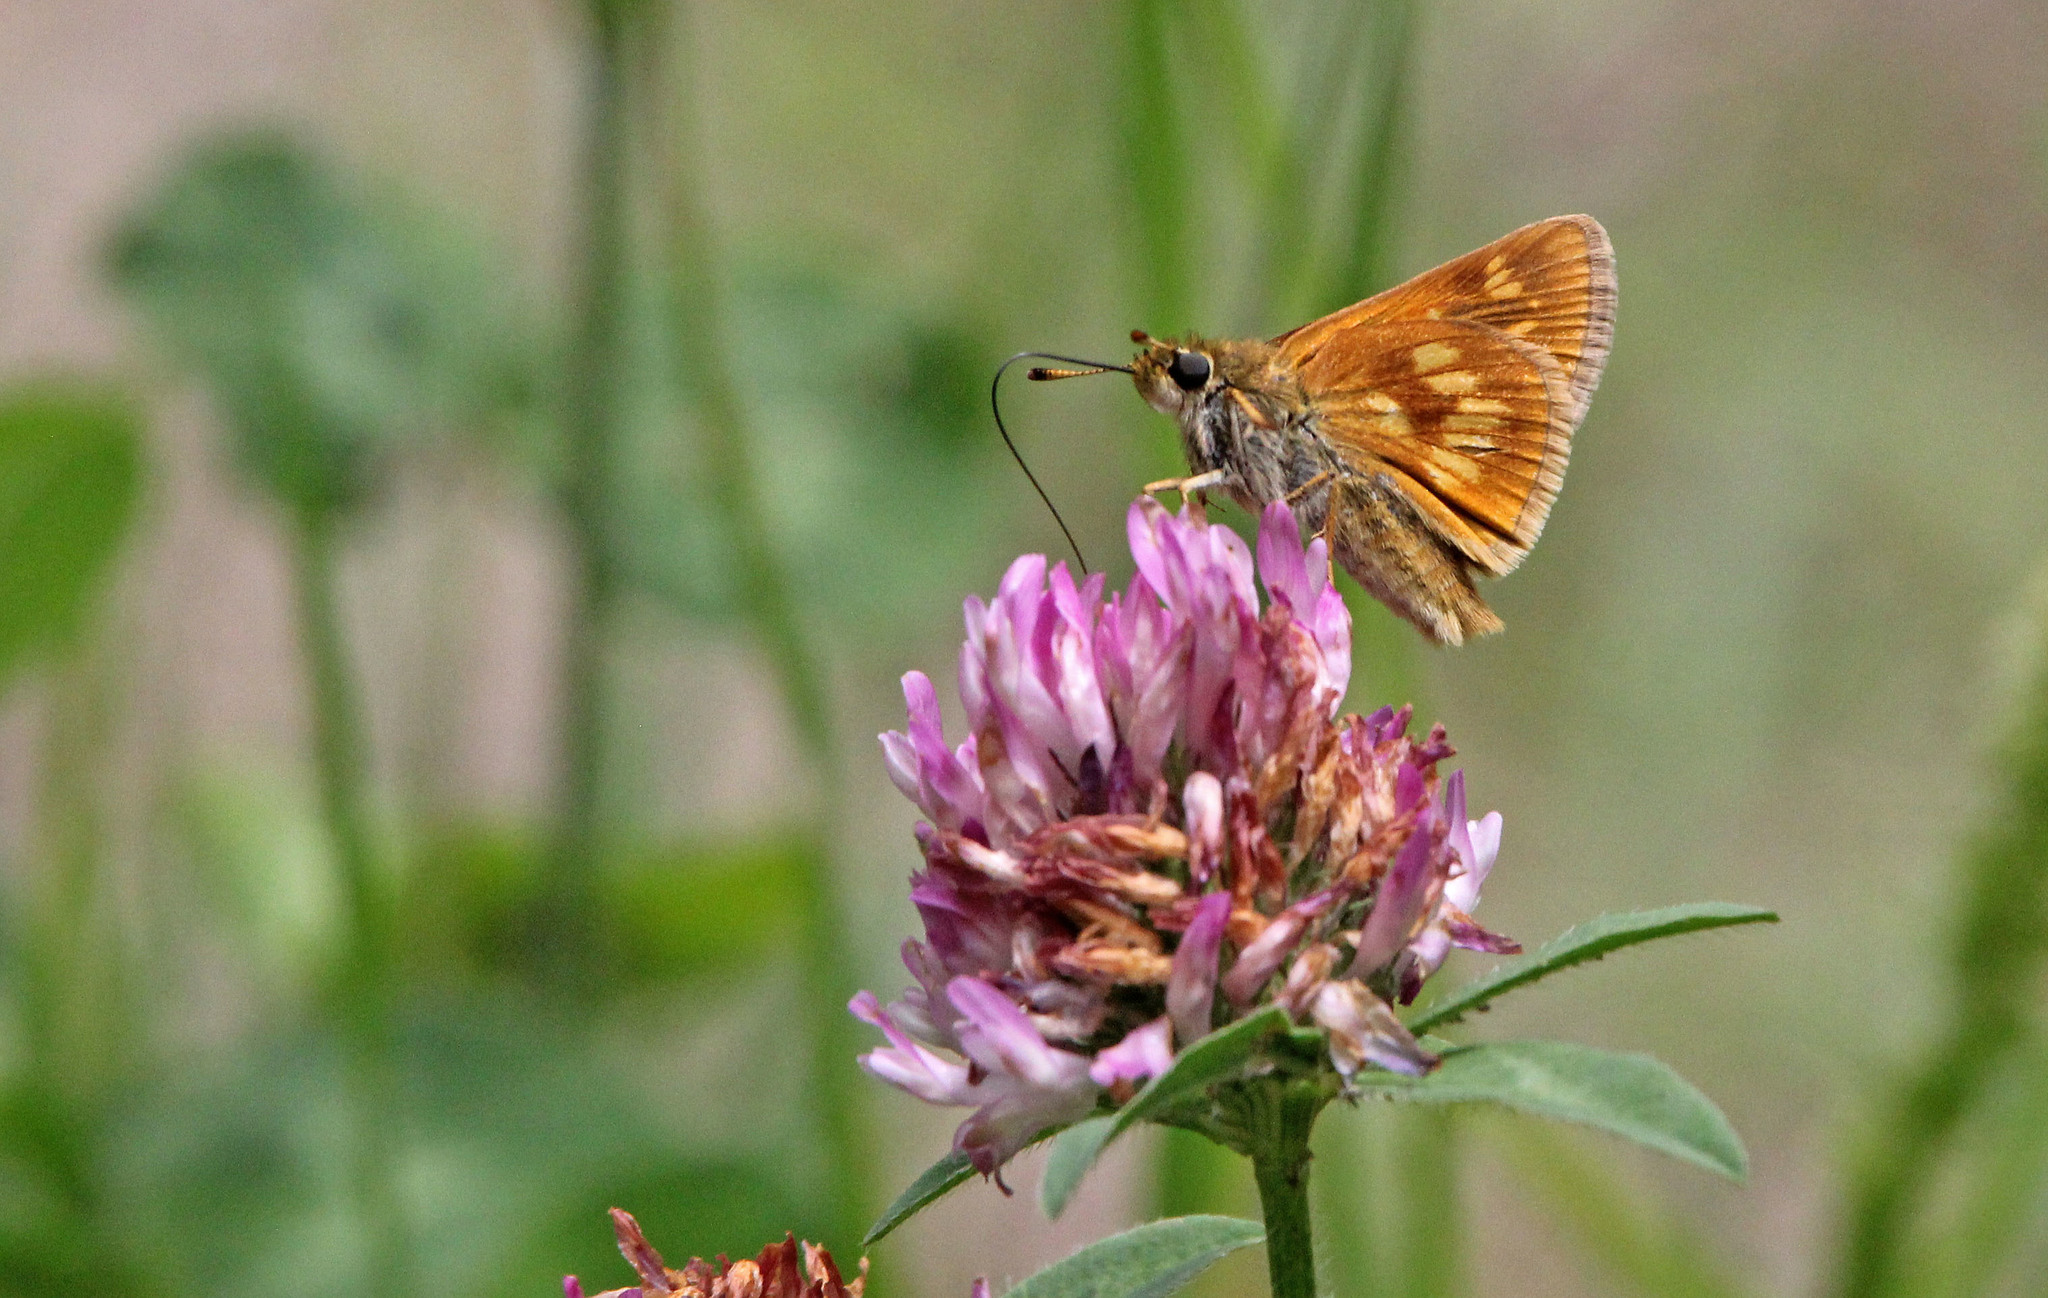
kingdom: Animalia
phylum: Arthropoda
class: Insecta
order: Lepidoptera
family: Hesperiidae
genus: Polites
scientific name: Polites mystic
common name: Long dash
